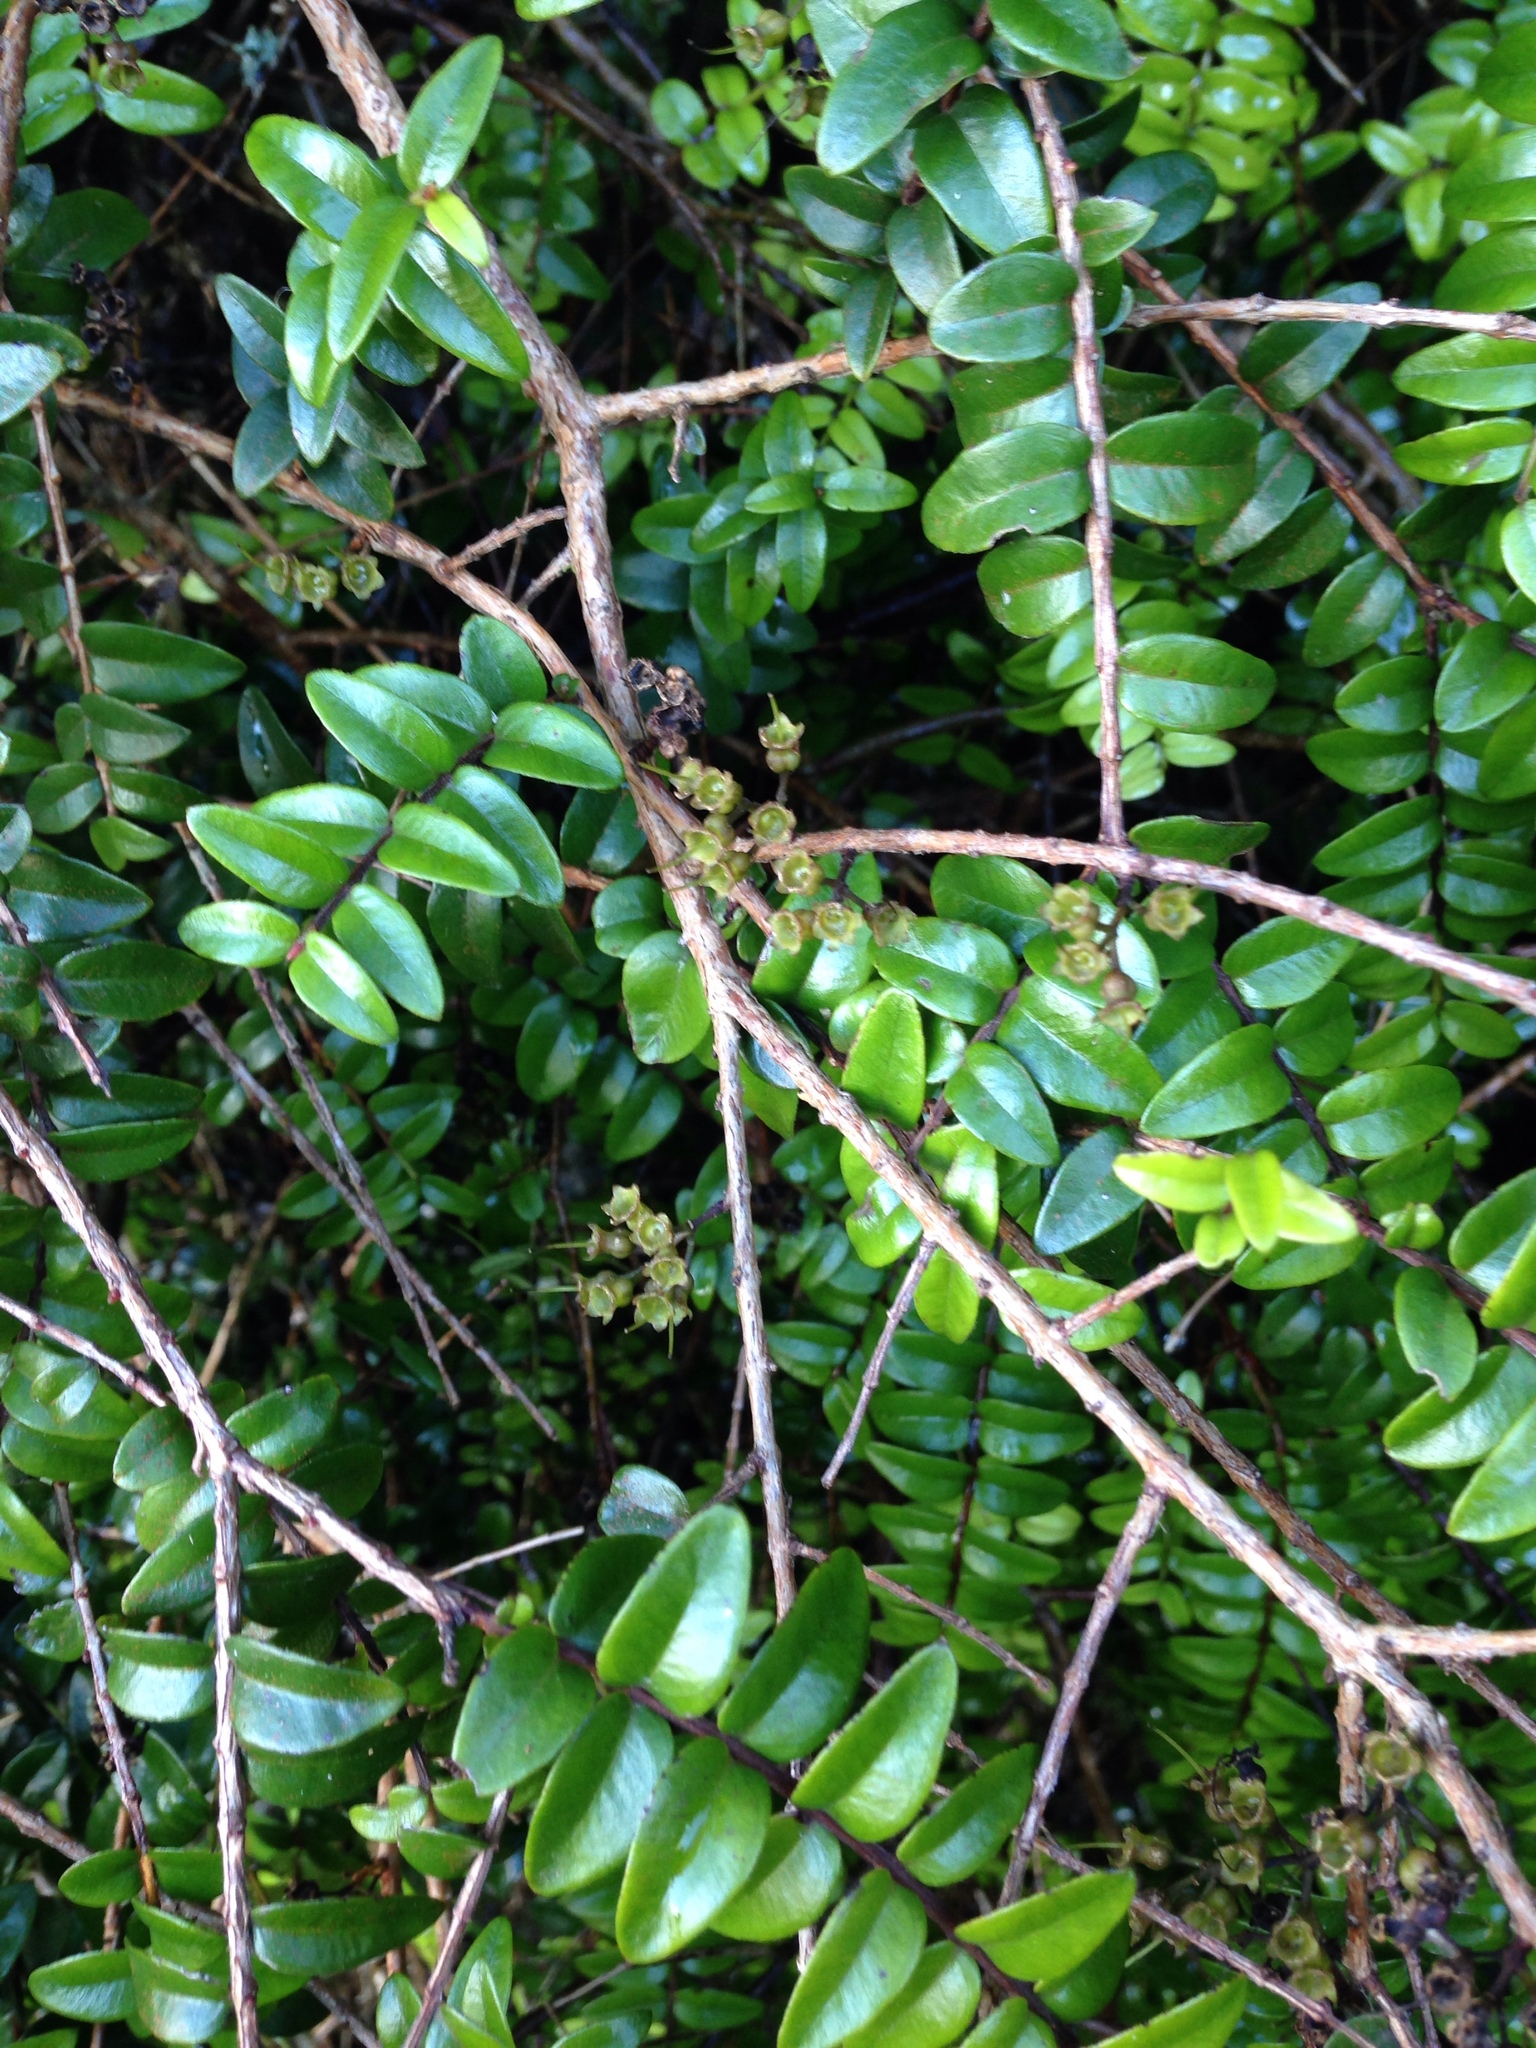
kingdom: Plantae
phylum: Tracheophyta
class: Magnoliopsida
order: Myrtales
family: Myrtaceae
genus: Metrosideros
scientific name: Metrosideros diffusa
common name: Small ratavine
